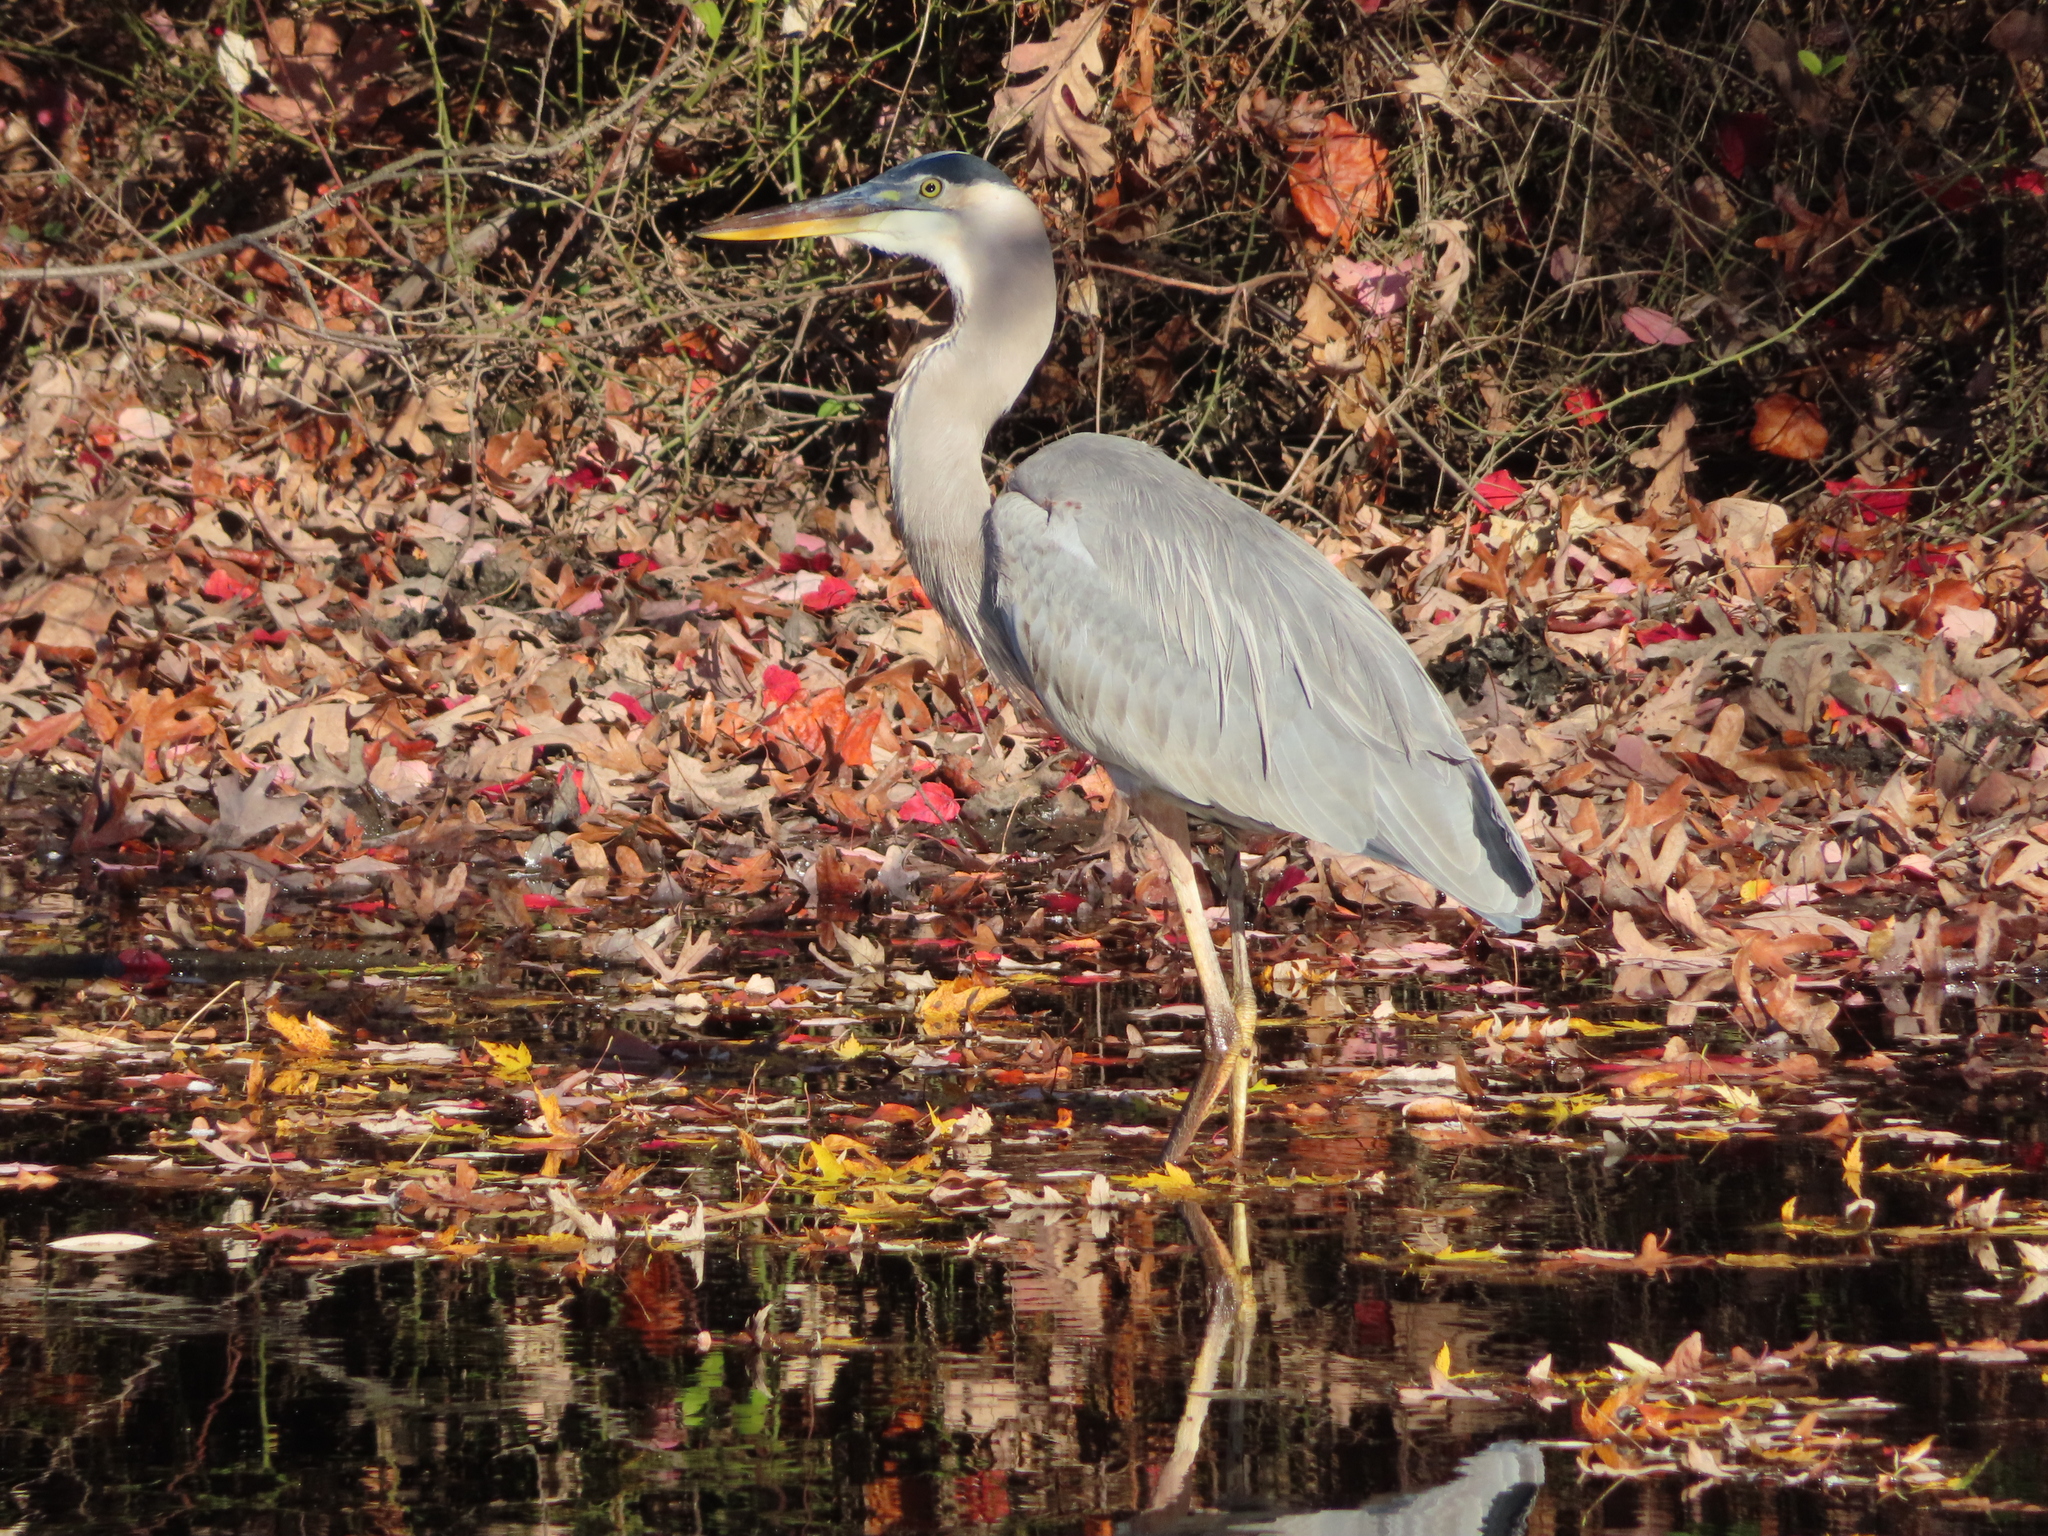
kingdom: Animalia
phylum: Chordata
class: Aves
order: Pelecaniformes
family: Ardeidae
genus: Ardea
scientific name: Ardea herodias
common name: Great blue heron
